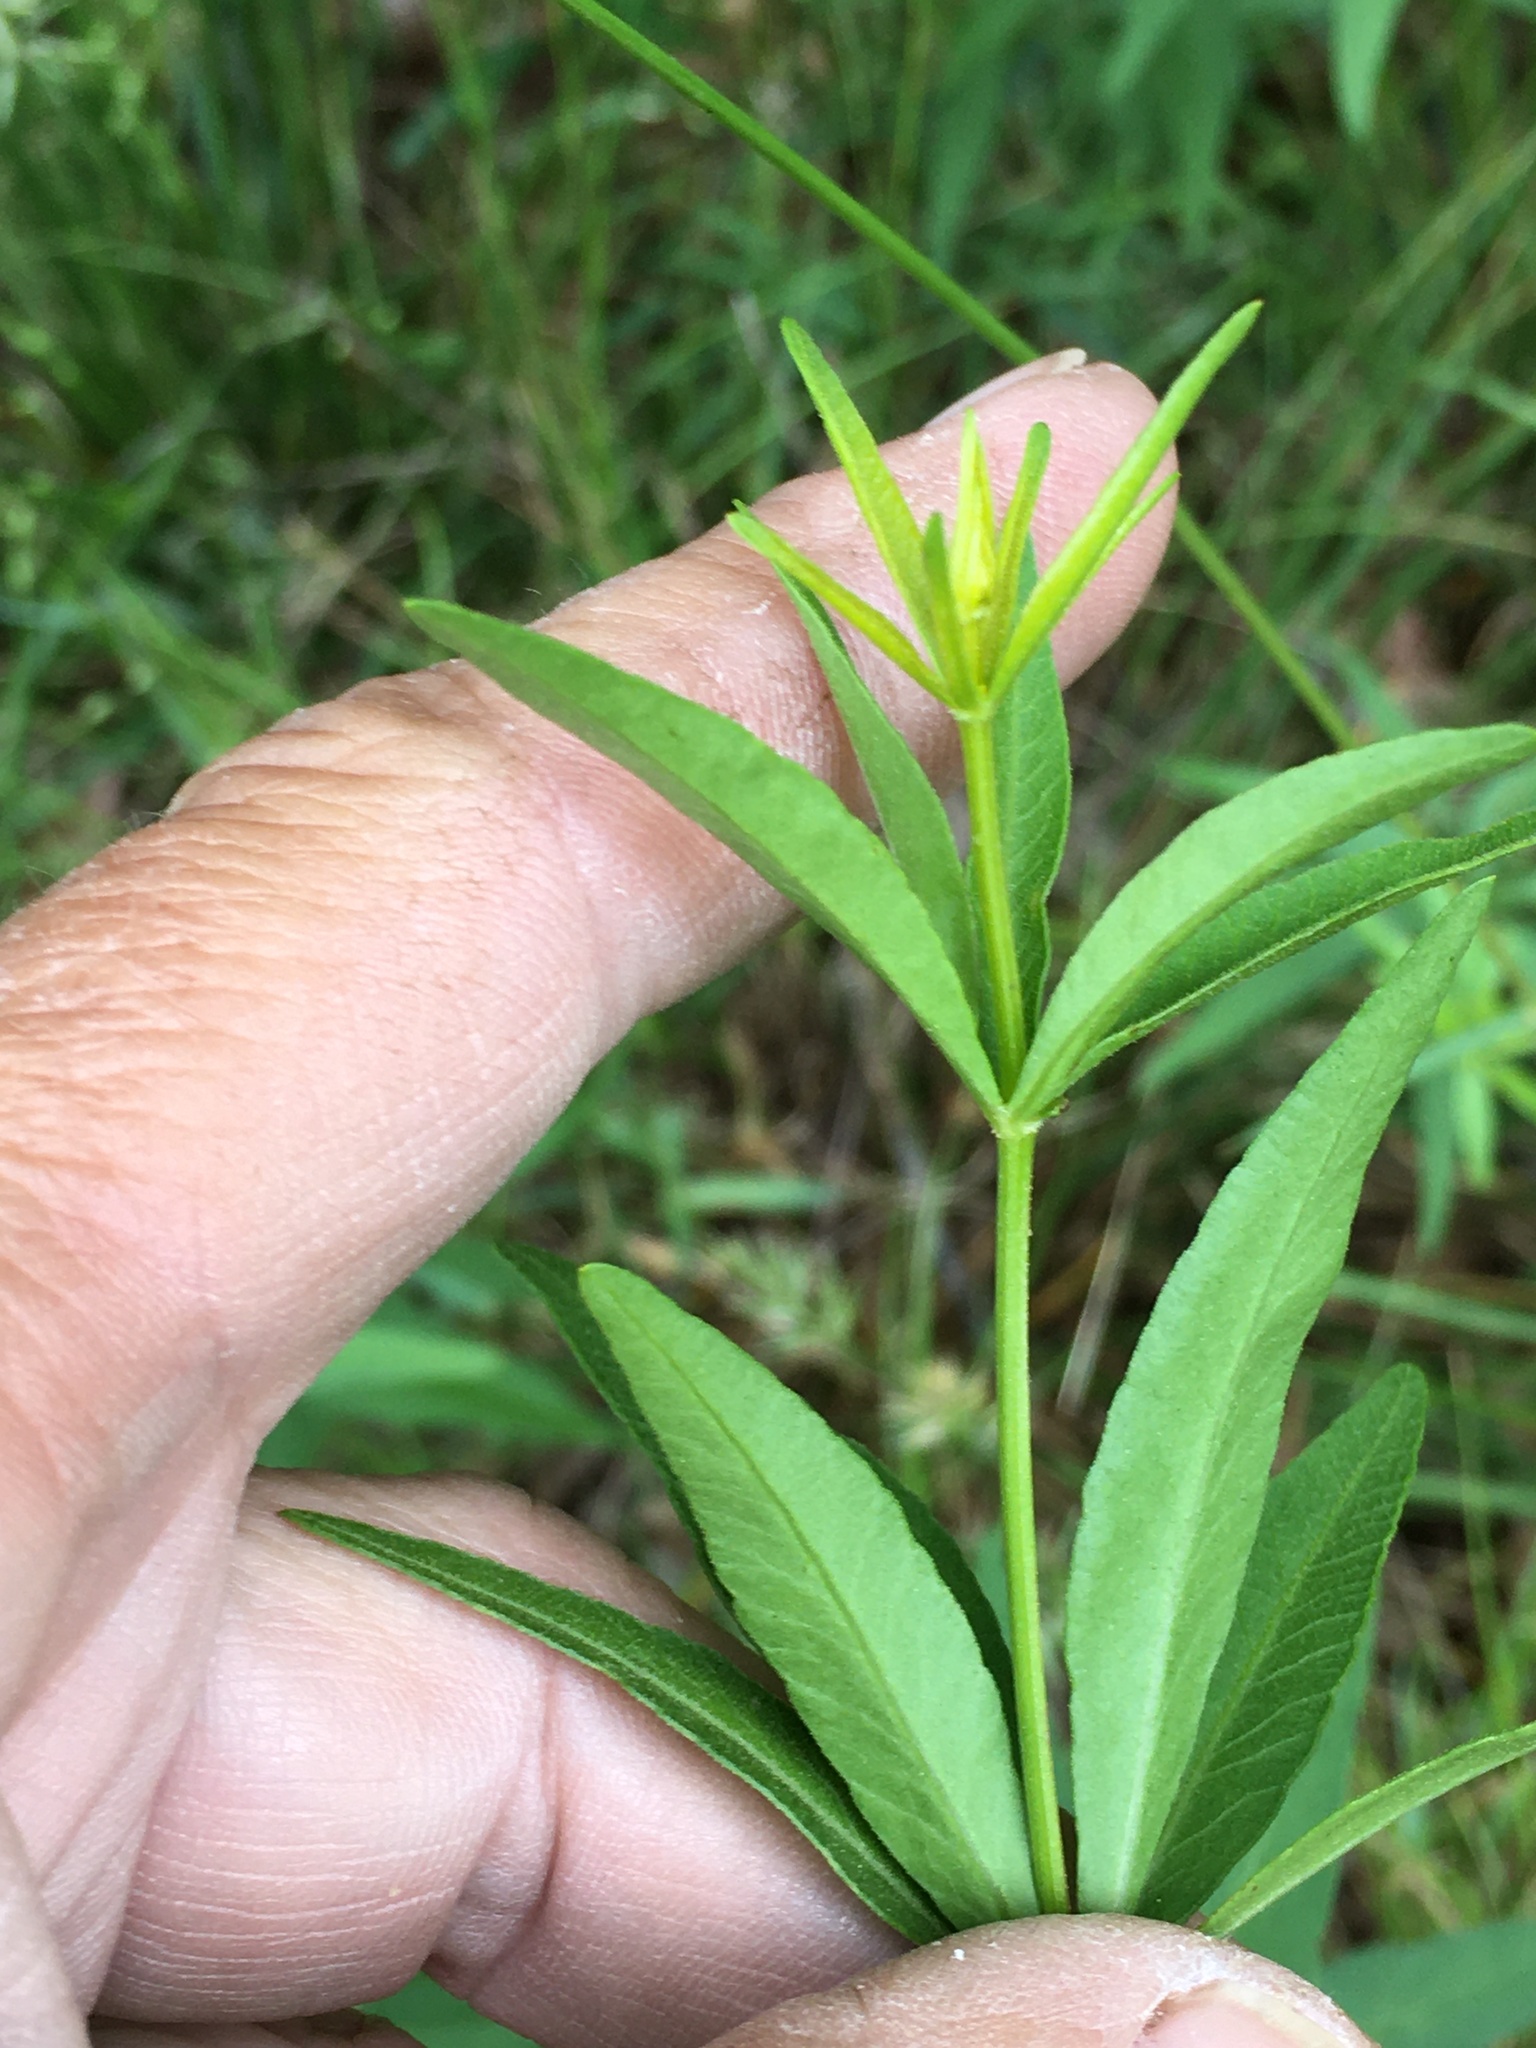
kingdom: Plantae
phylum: Tracheophyta
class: Magnoliopsida
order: Asterales
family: Asteraceae
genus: Coreopsis
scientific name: Coreopsis major
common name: Forest tickseed
